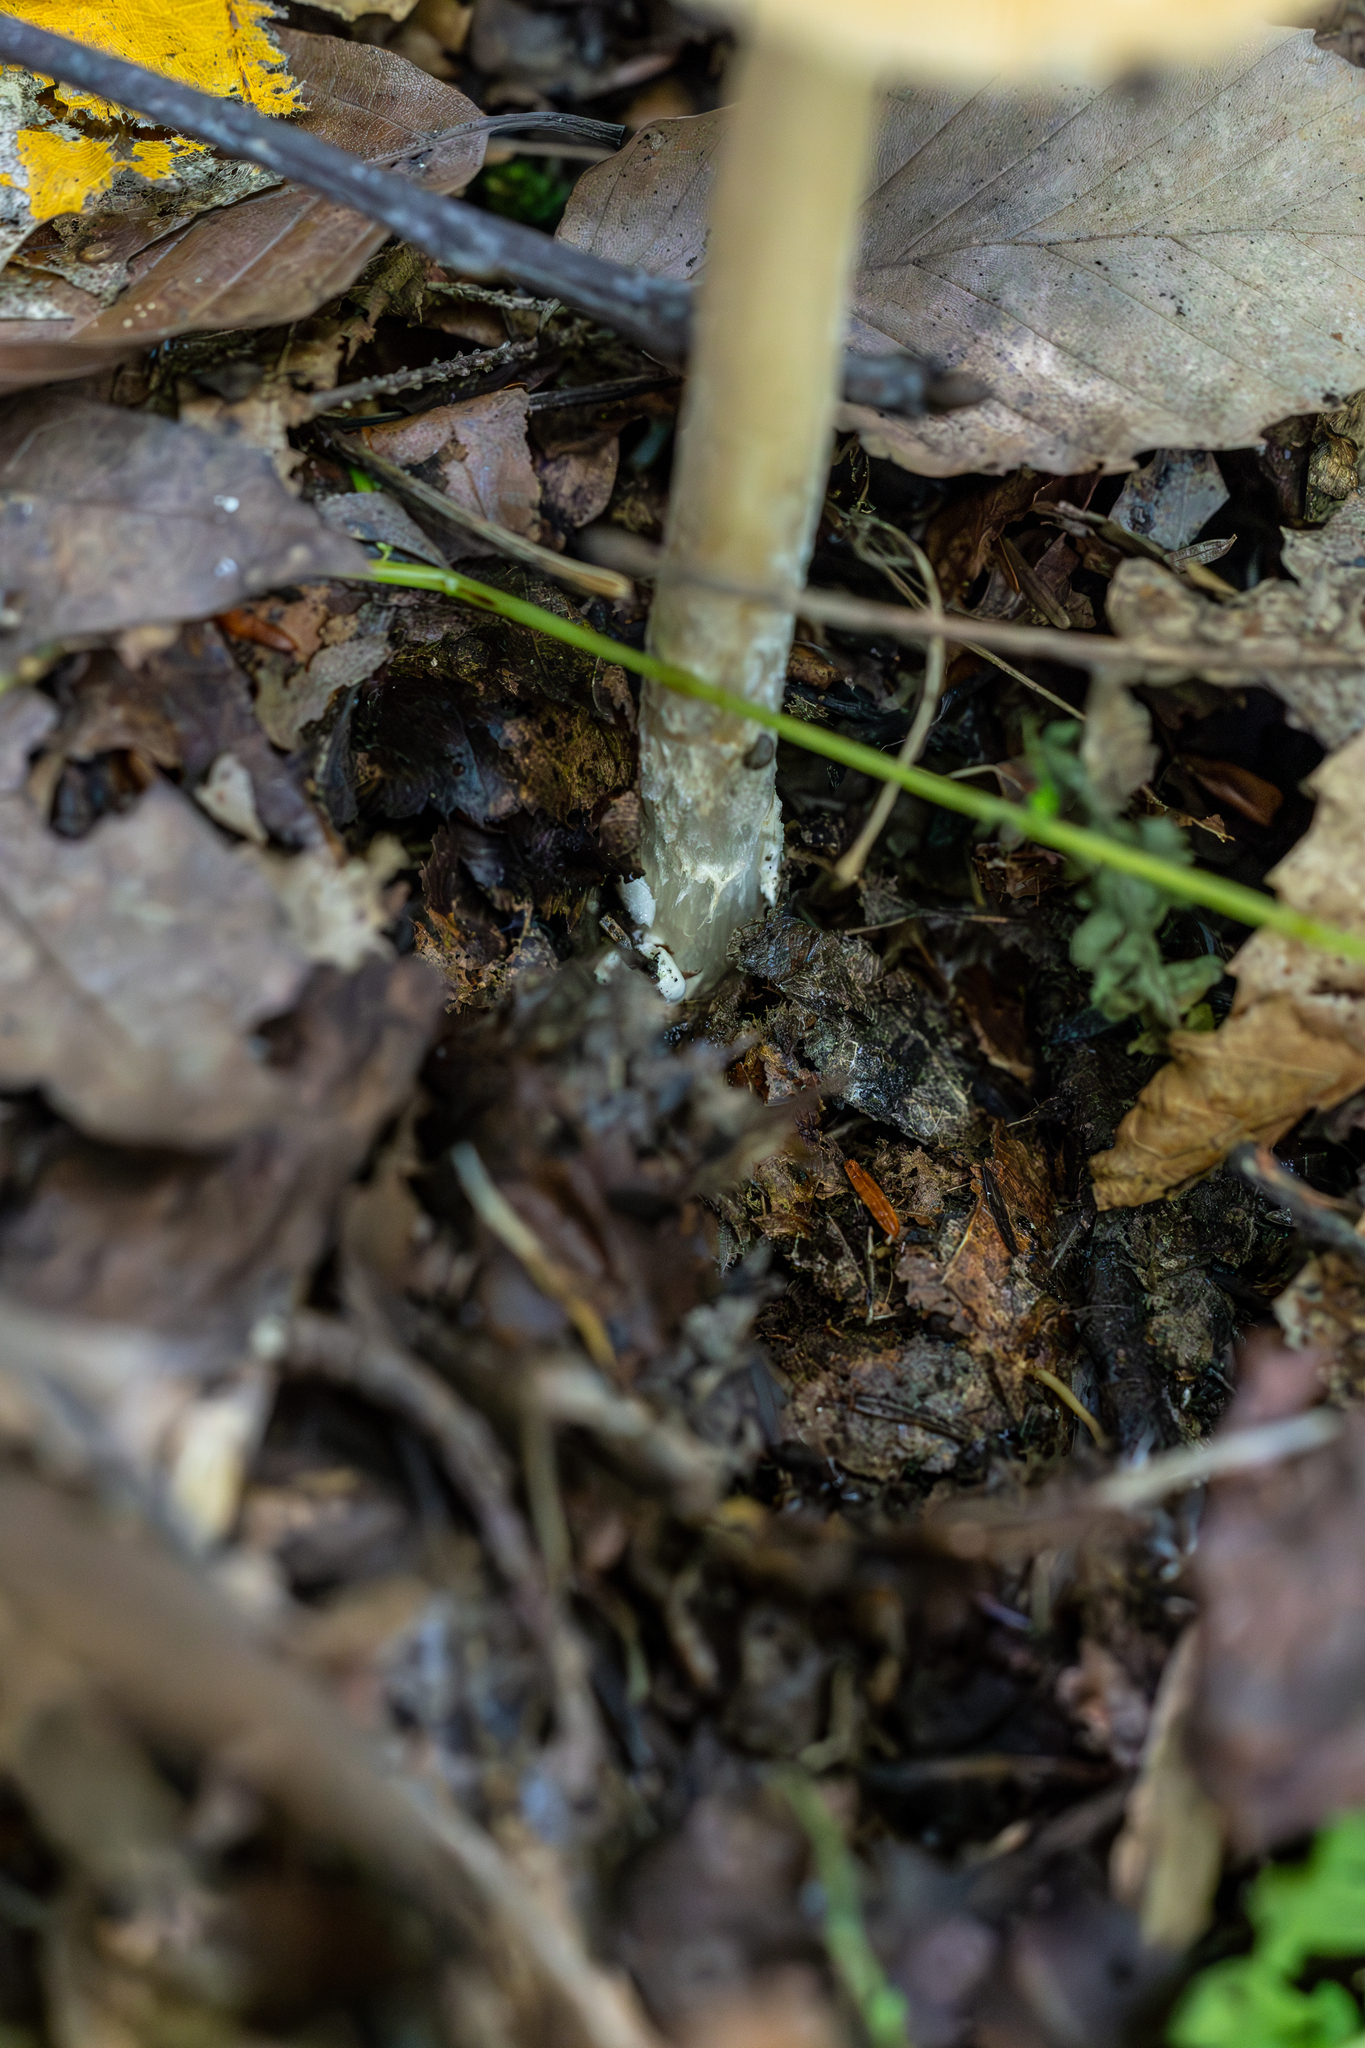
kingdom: Fungi
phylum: Basidiomycota
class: Agaricomycetes
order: Agaricales
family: Amanitaceae
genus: Amanita
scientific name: Amanita fulva
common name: Tawny grisette
